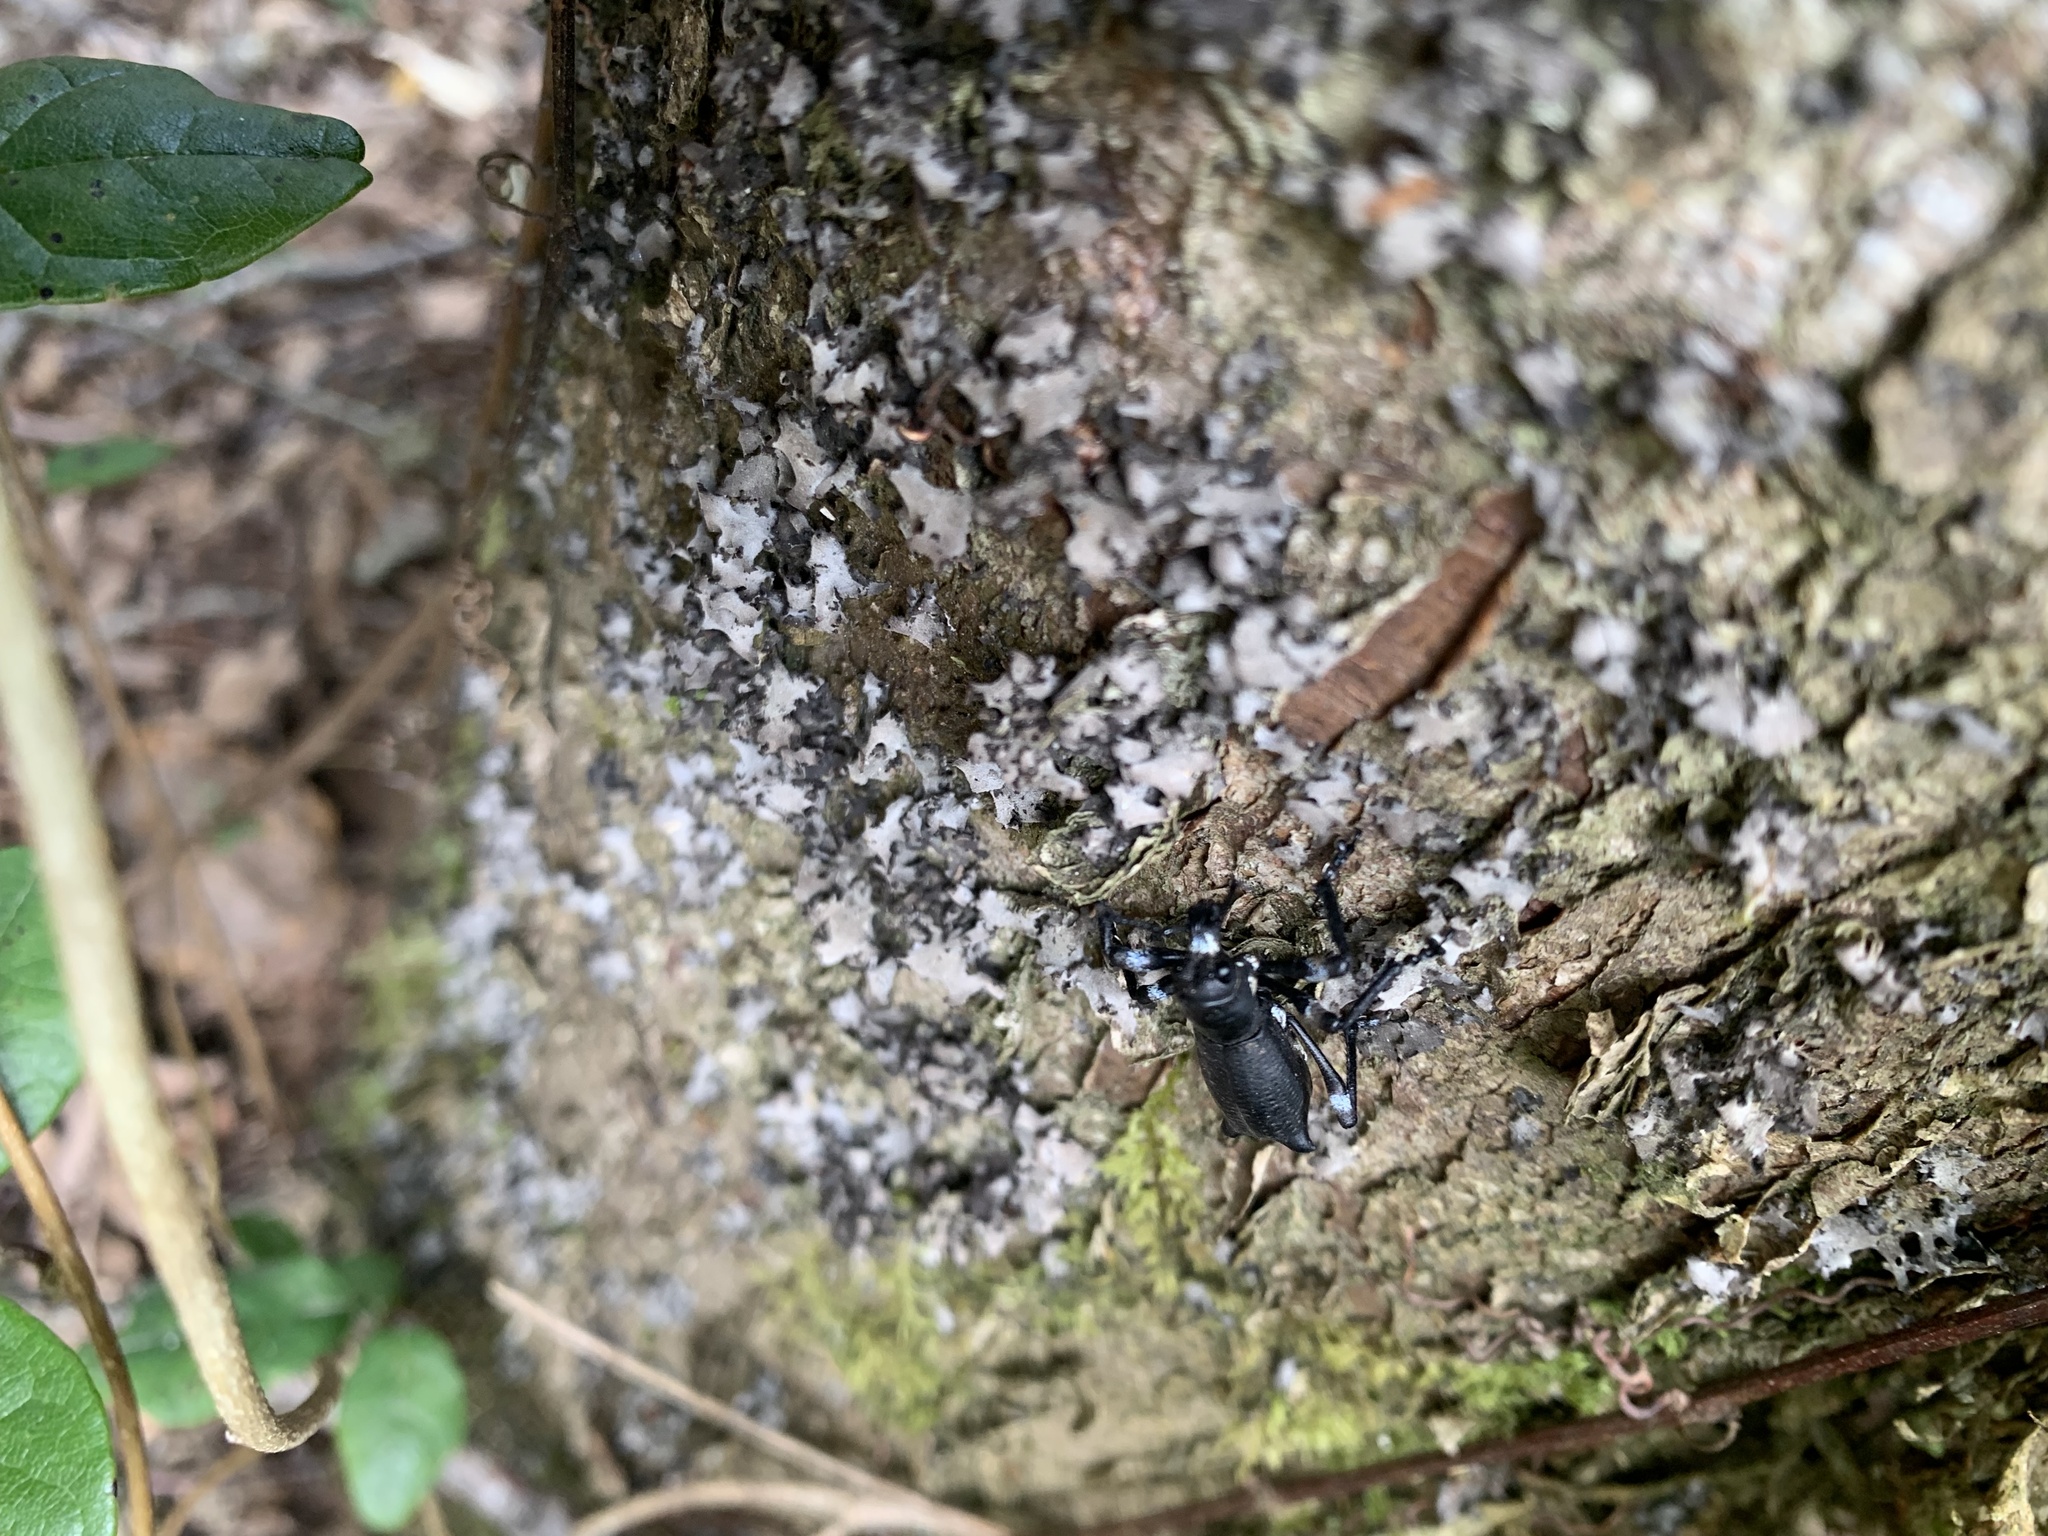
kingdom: Animalia
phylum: Arthropoda
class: Insecta
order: Coleoptera
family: Curculionidae
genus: Aegorhinus
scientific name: Aegorhinus
